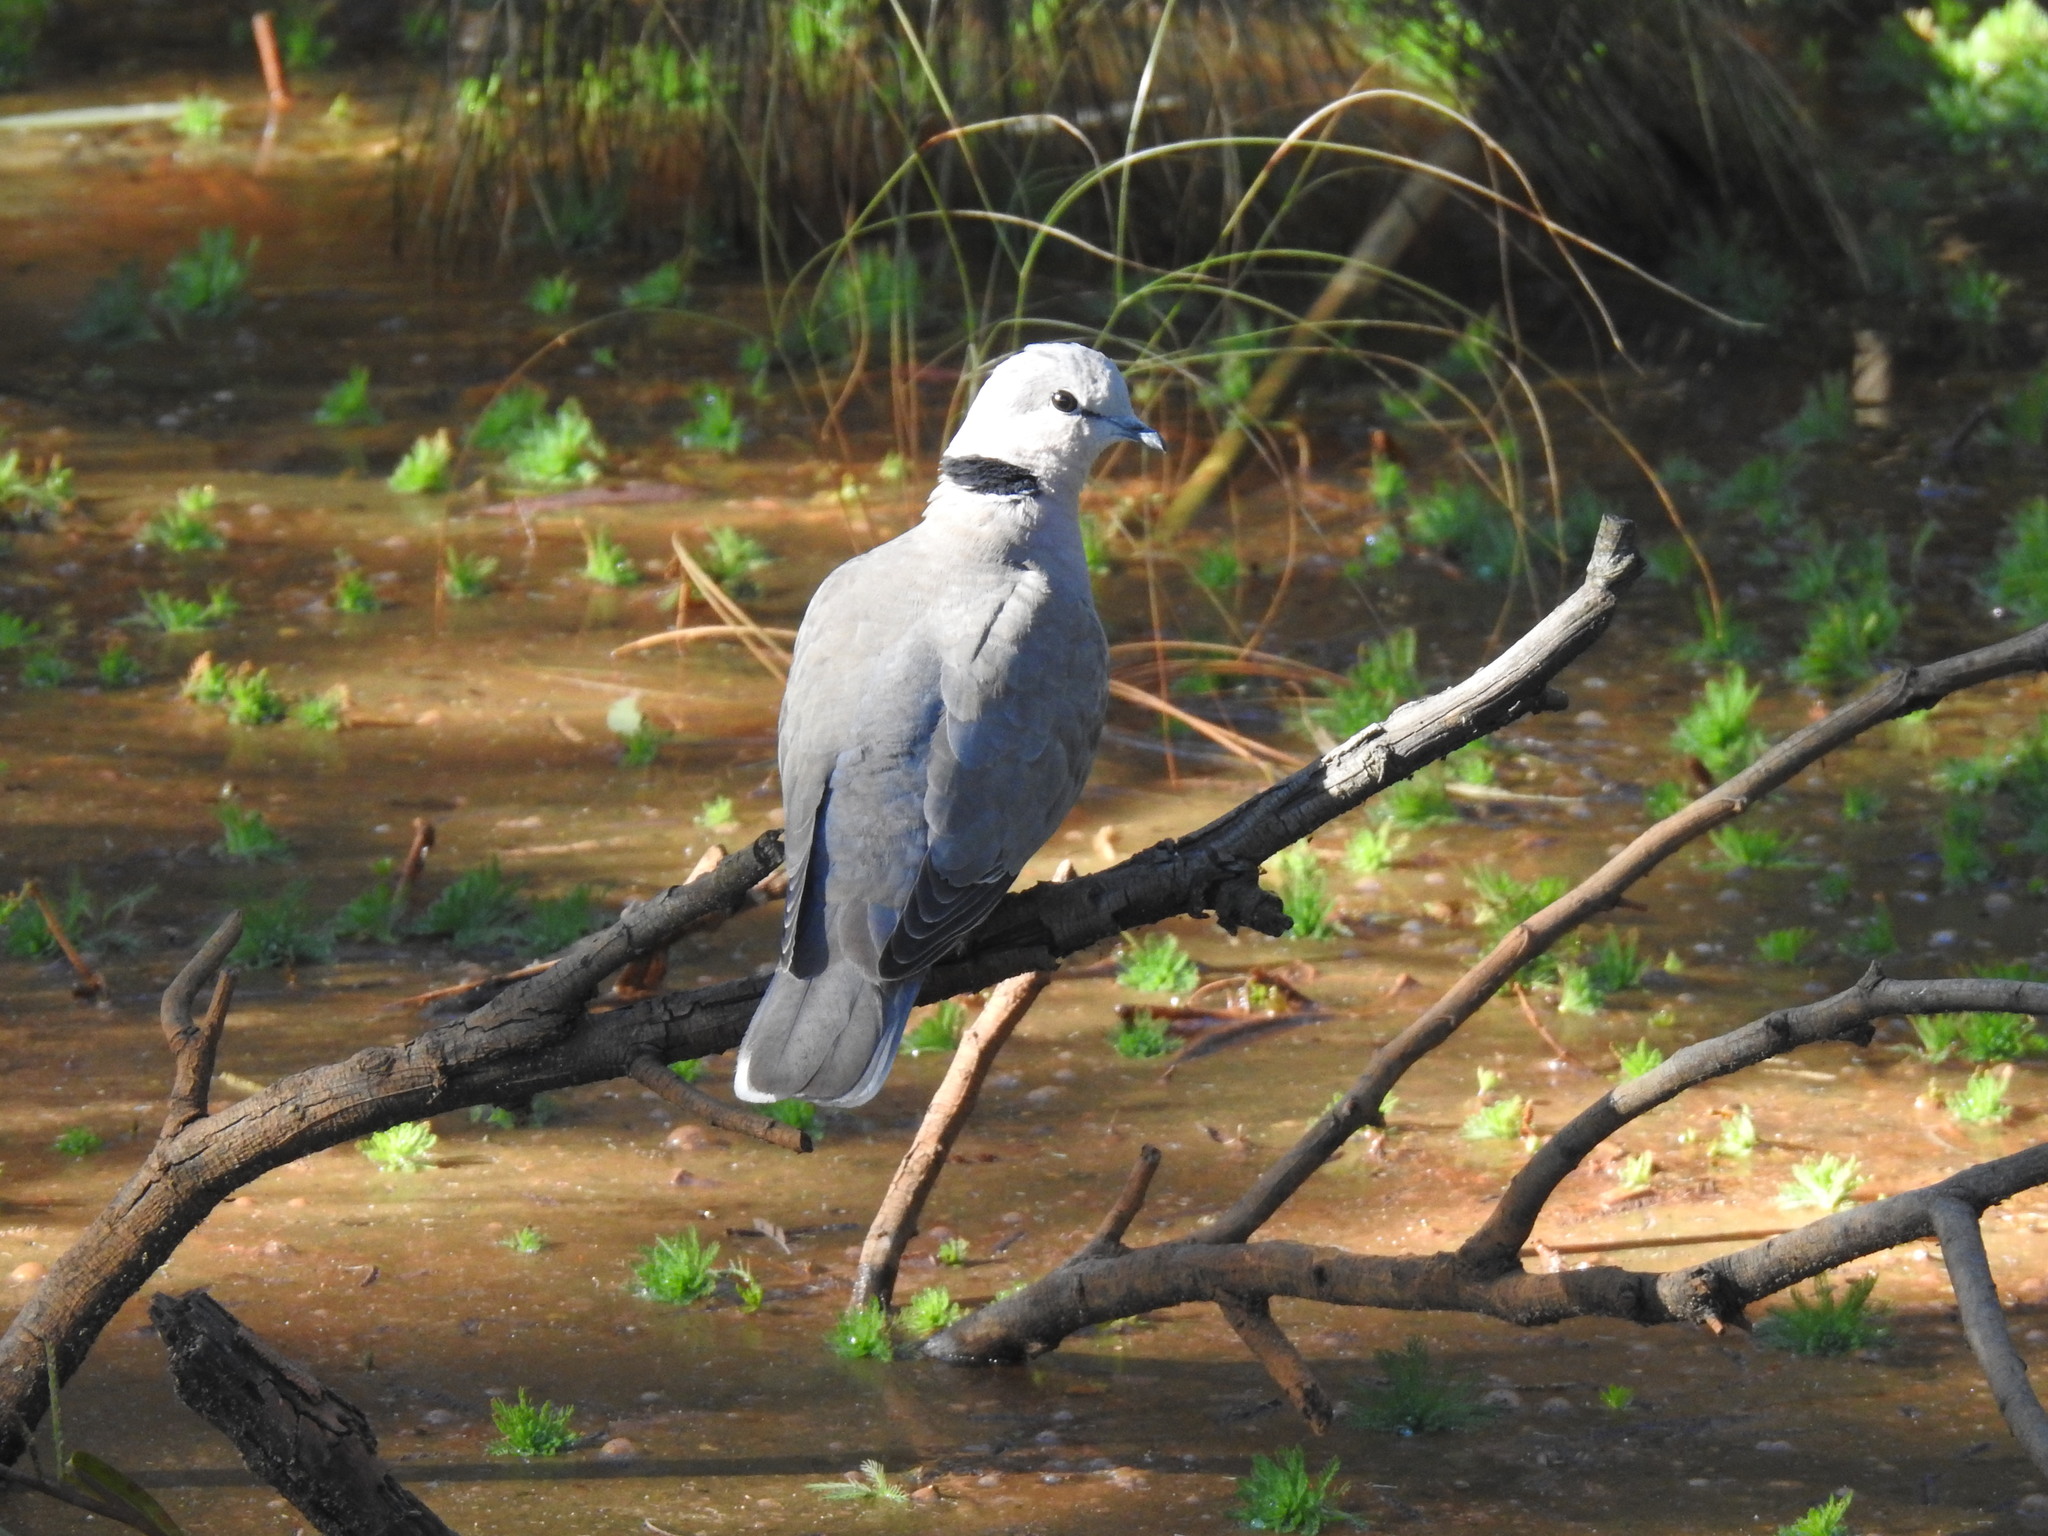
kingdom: Animalia
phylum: Chordata
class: Aves
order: Columbiformes
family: Columbidae
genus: Streptopelia
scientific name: Streptopelia capicola
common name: Ring-necked dove
